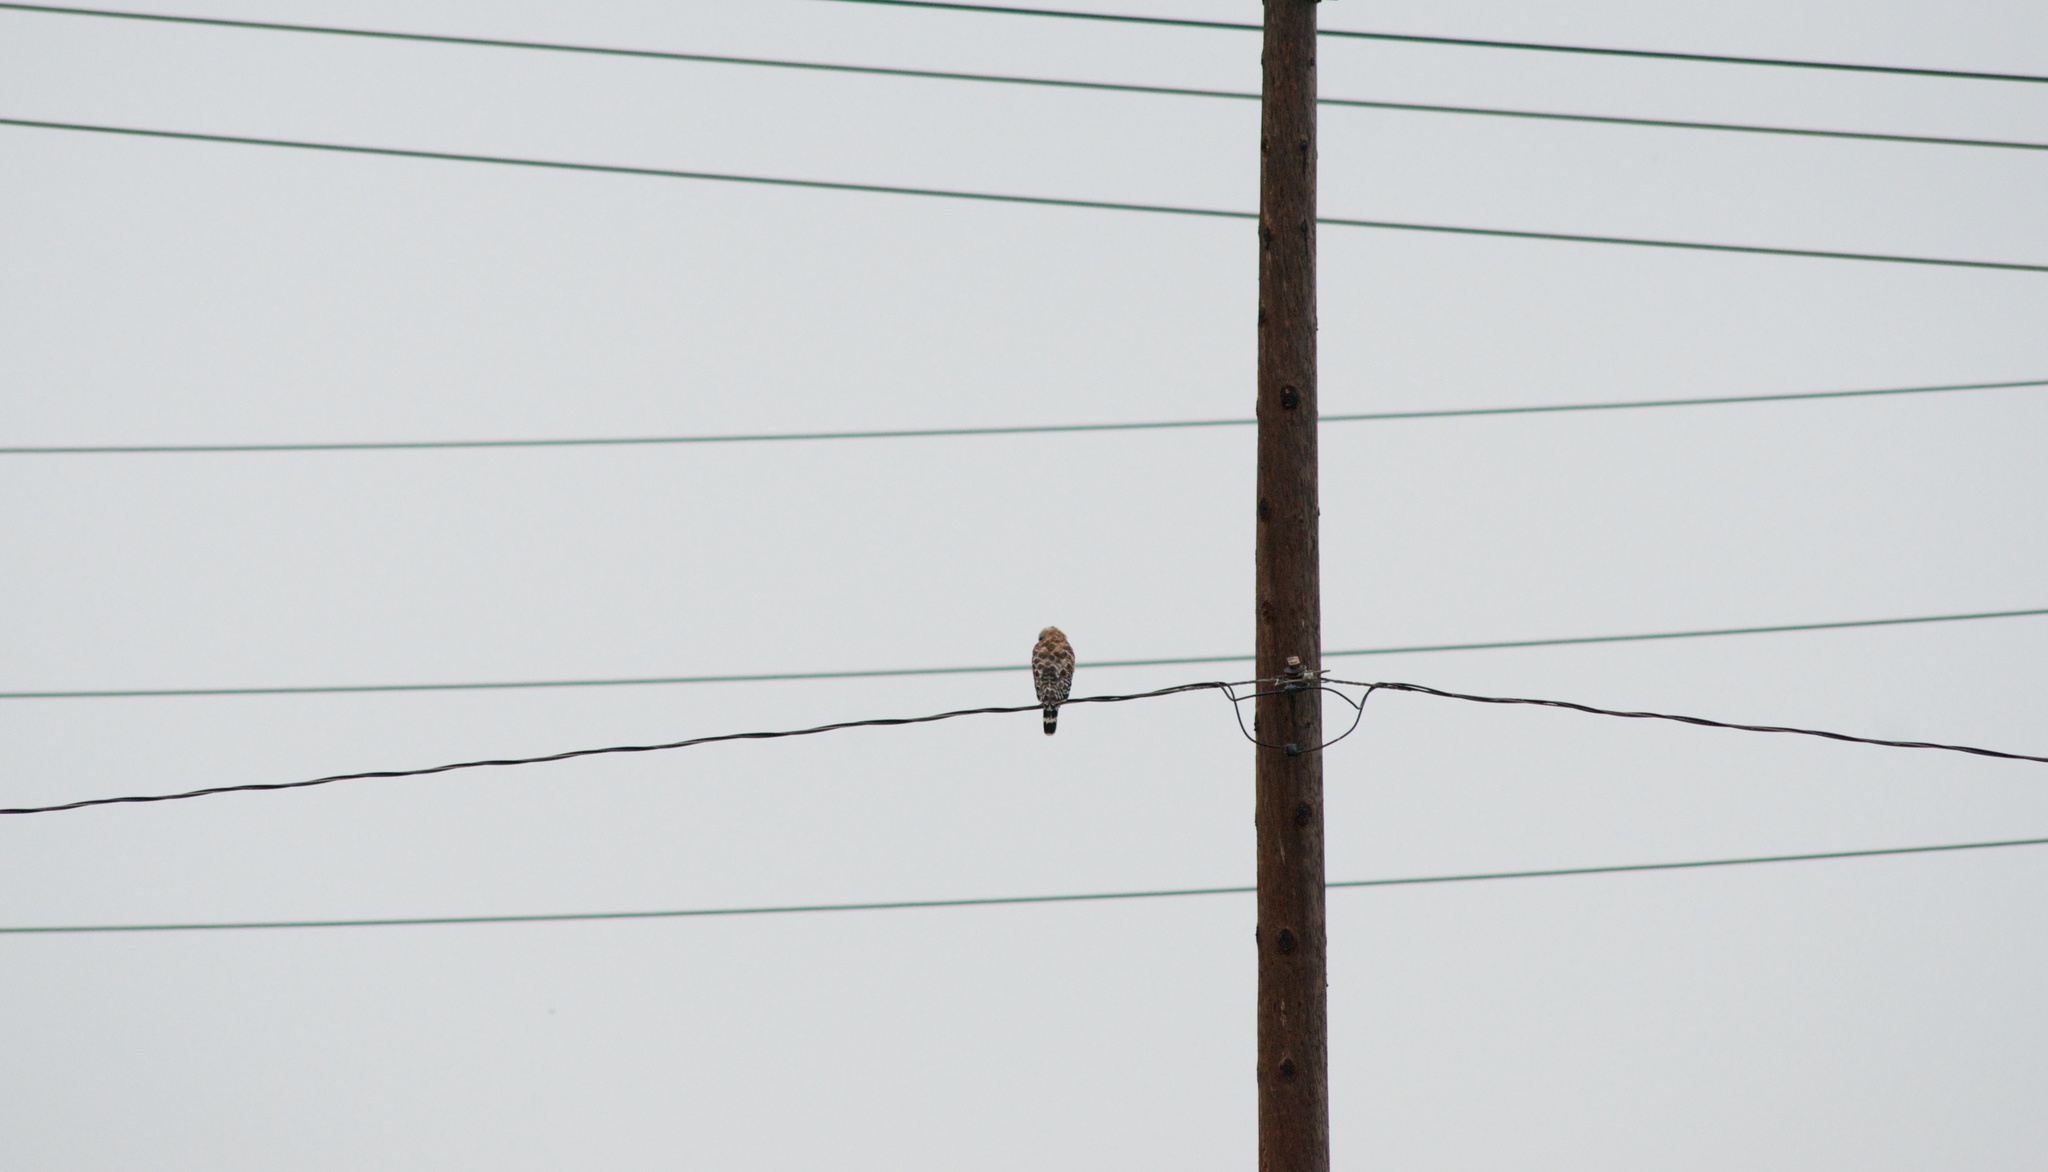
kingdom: Animalia
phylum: Chordata
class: Aves
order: Accipitriformes
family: Accipitridae
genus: Buteo
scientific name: Buteo lineatus
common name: Red-shouldered hawk
